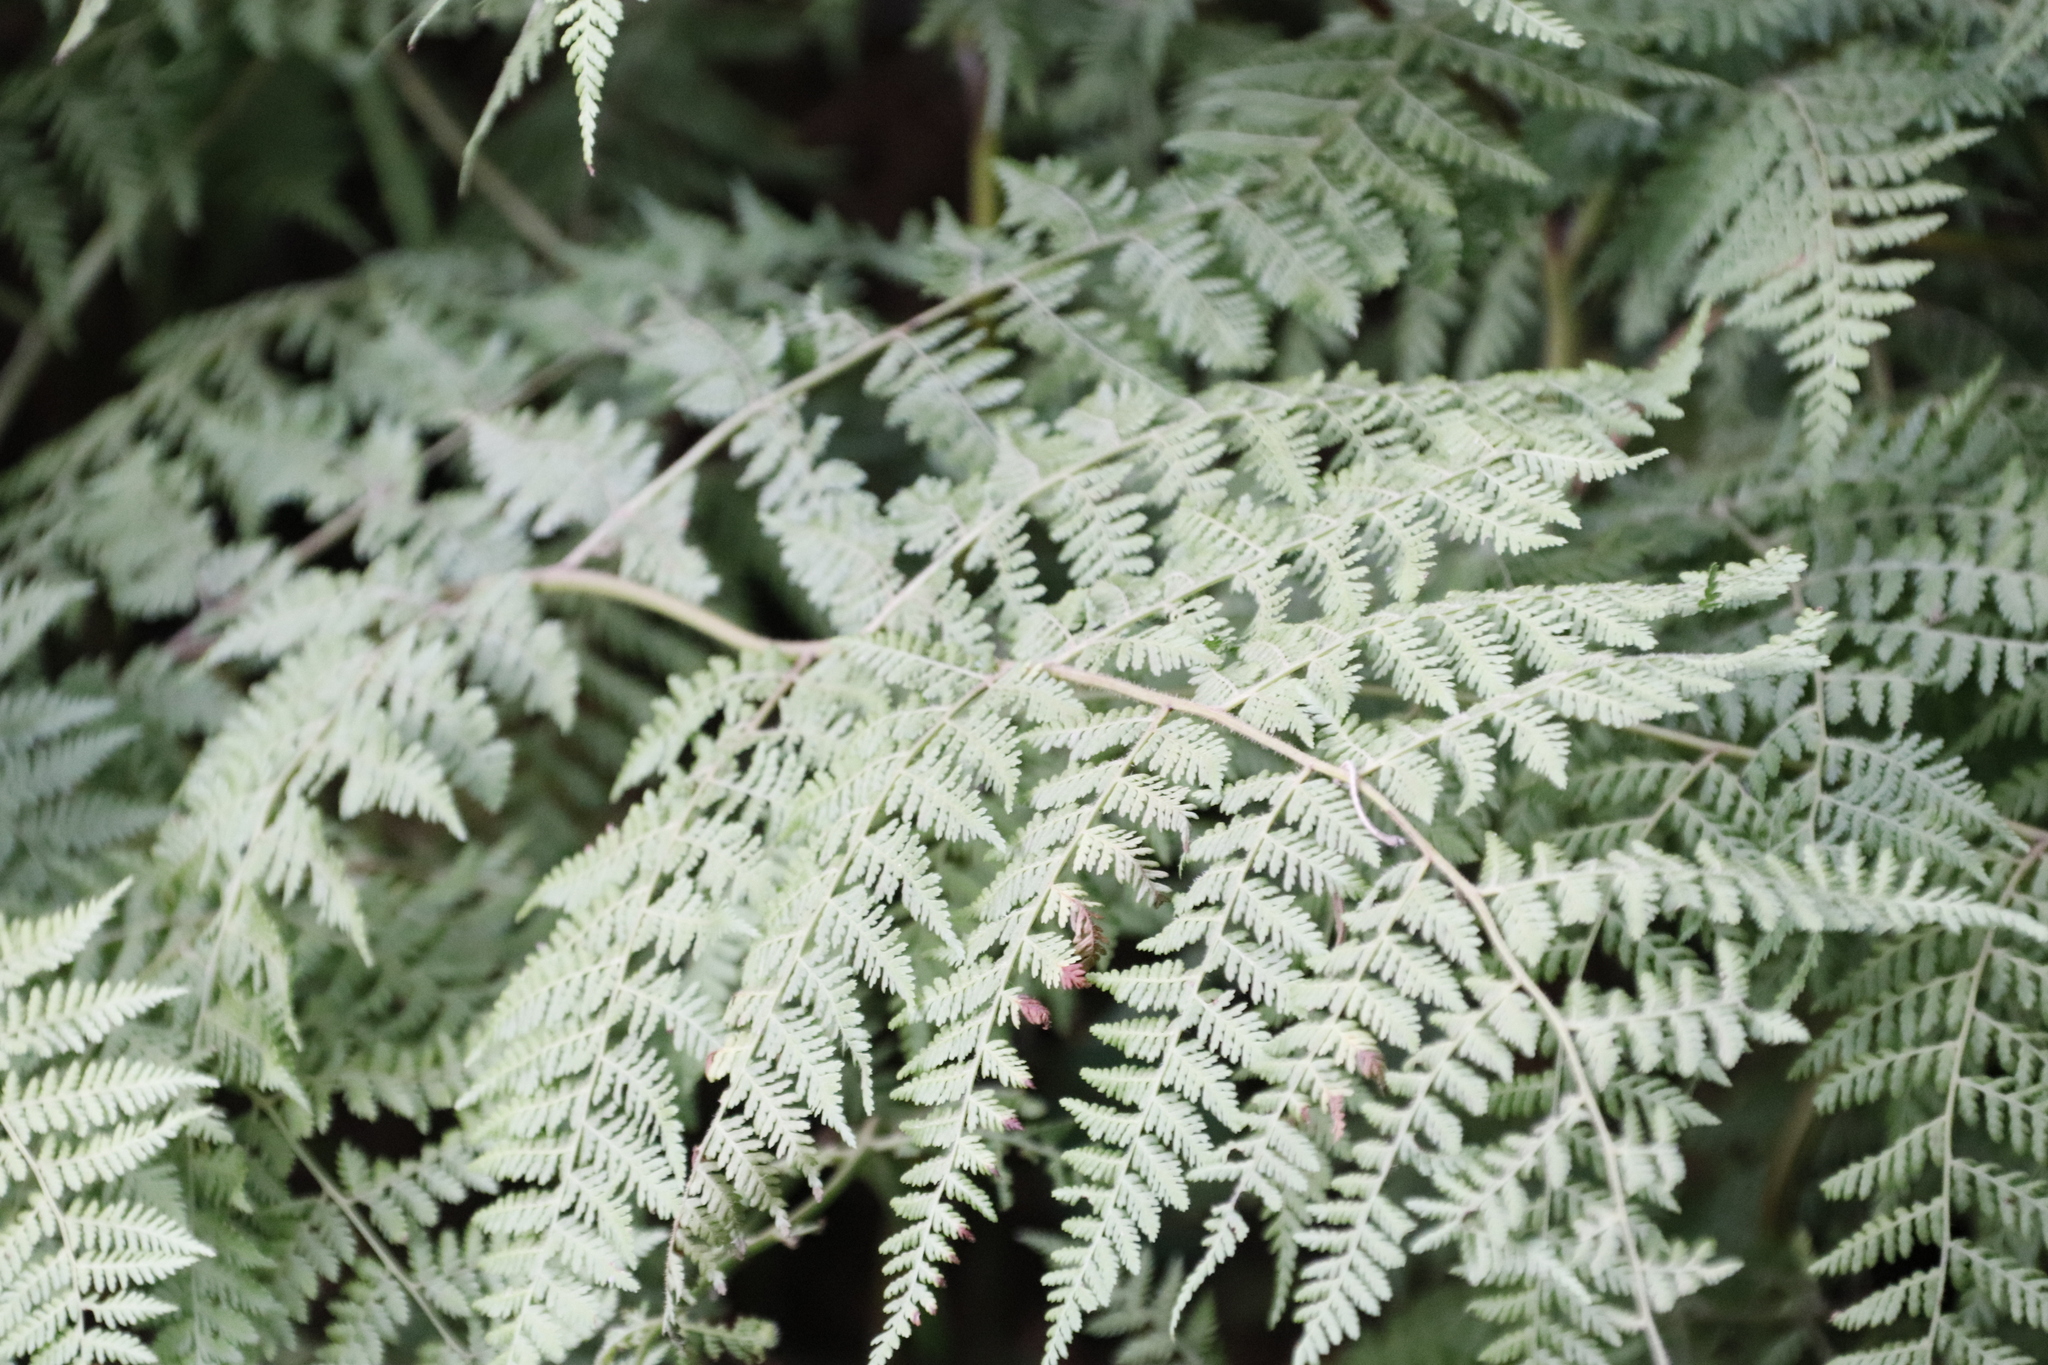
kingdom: Plantae
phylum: Tracheophyta
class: Polypodiopsida
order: Polypodiales
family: Dennstaedtiaceae
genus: Pteridium
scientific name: Pteridium aquilinum
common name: Bracken
